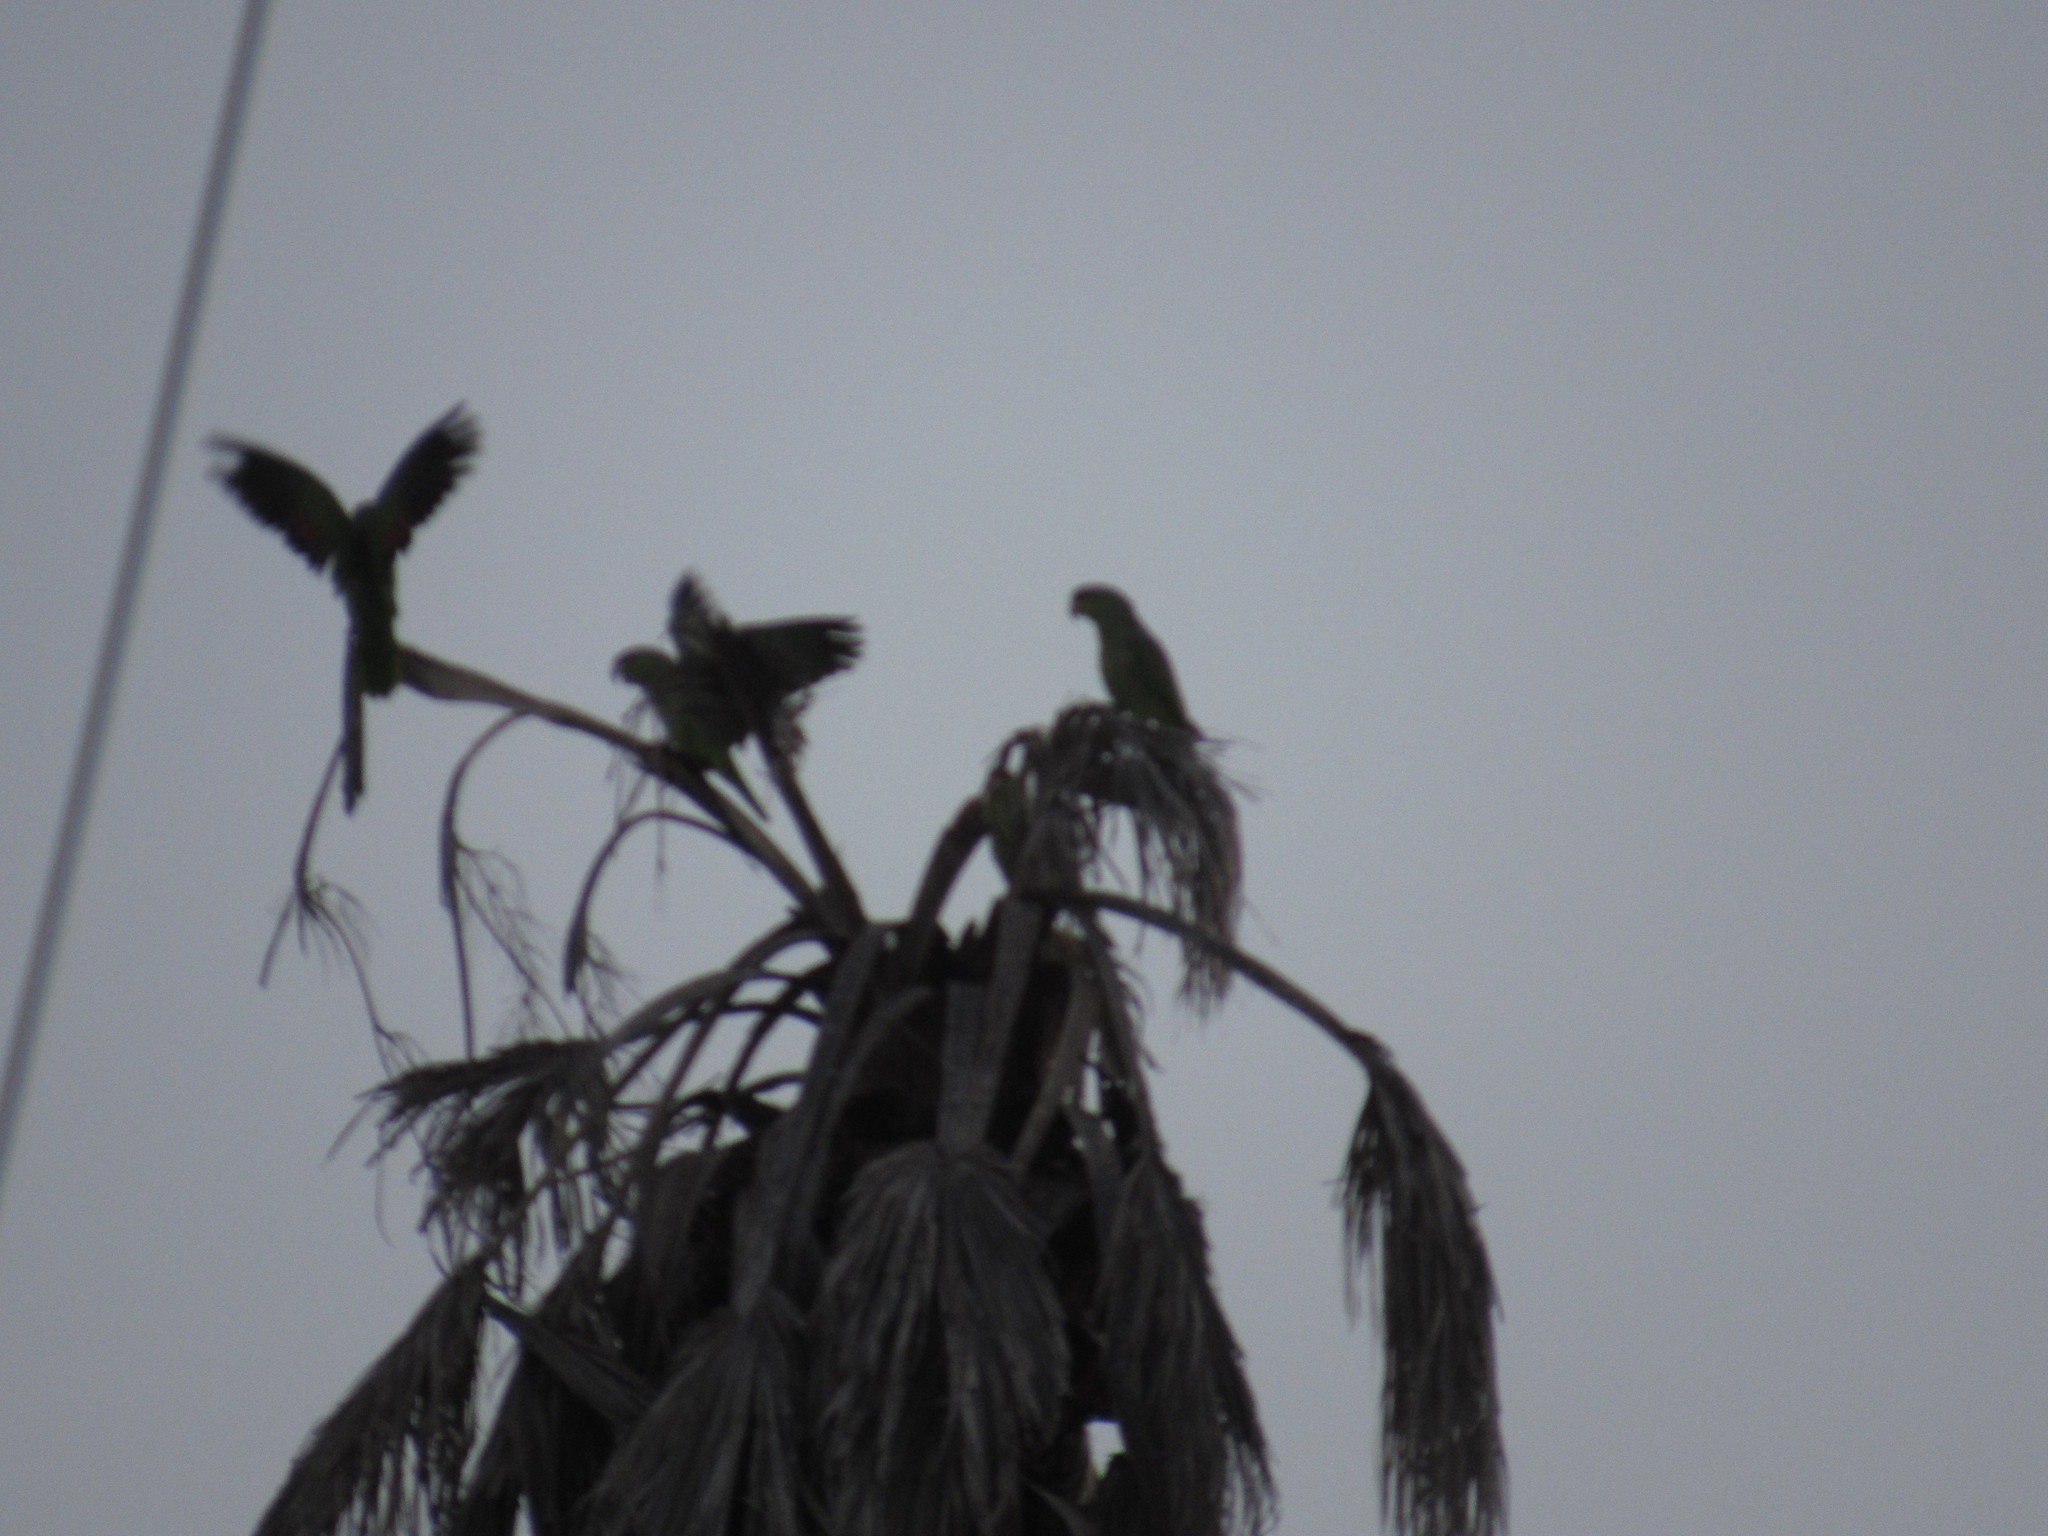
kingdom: Animalia
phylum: Chordata
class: Aves
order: Psittaciformes
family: Psittacidae
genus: Amazona
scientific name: Amazona finschi
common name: Lilac-crowned amazon
